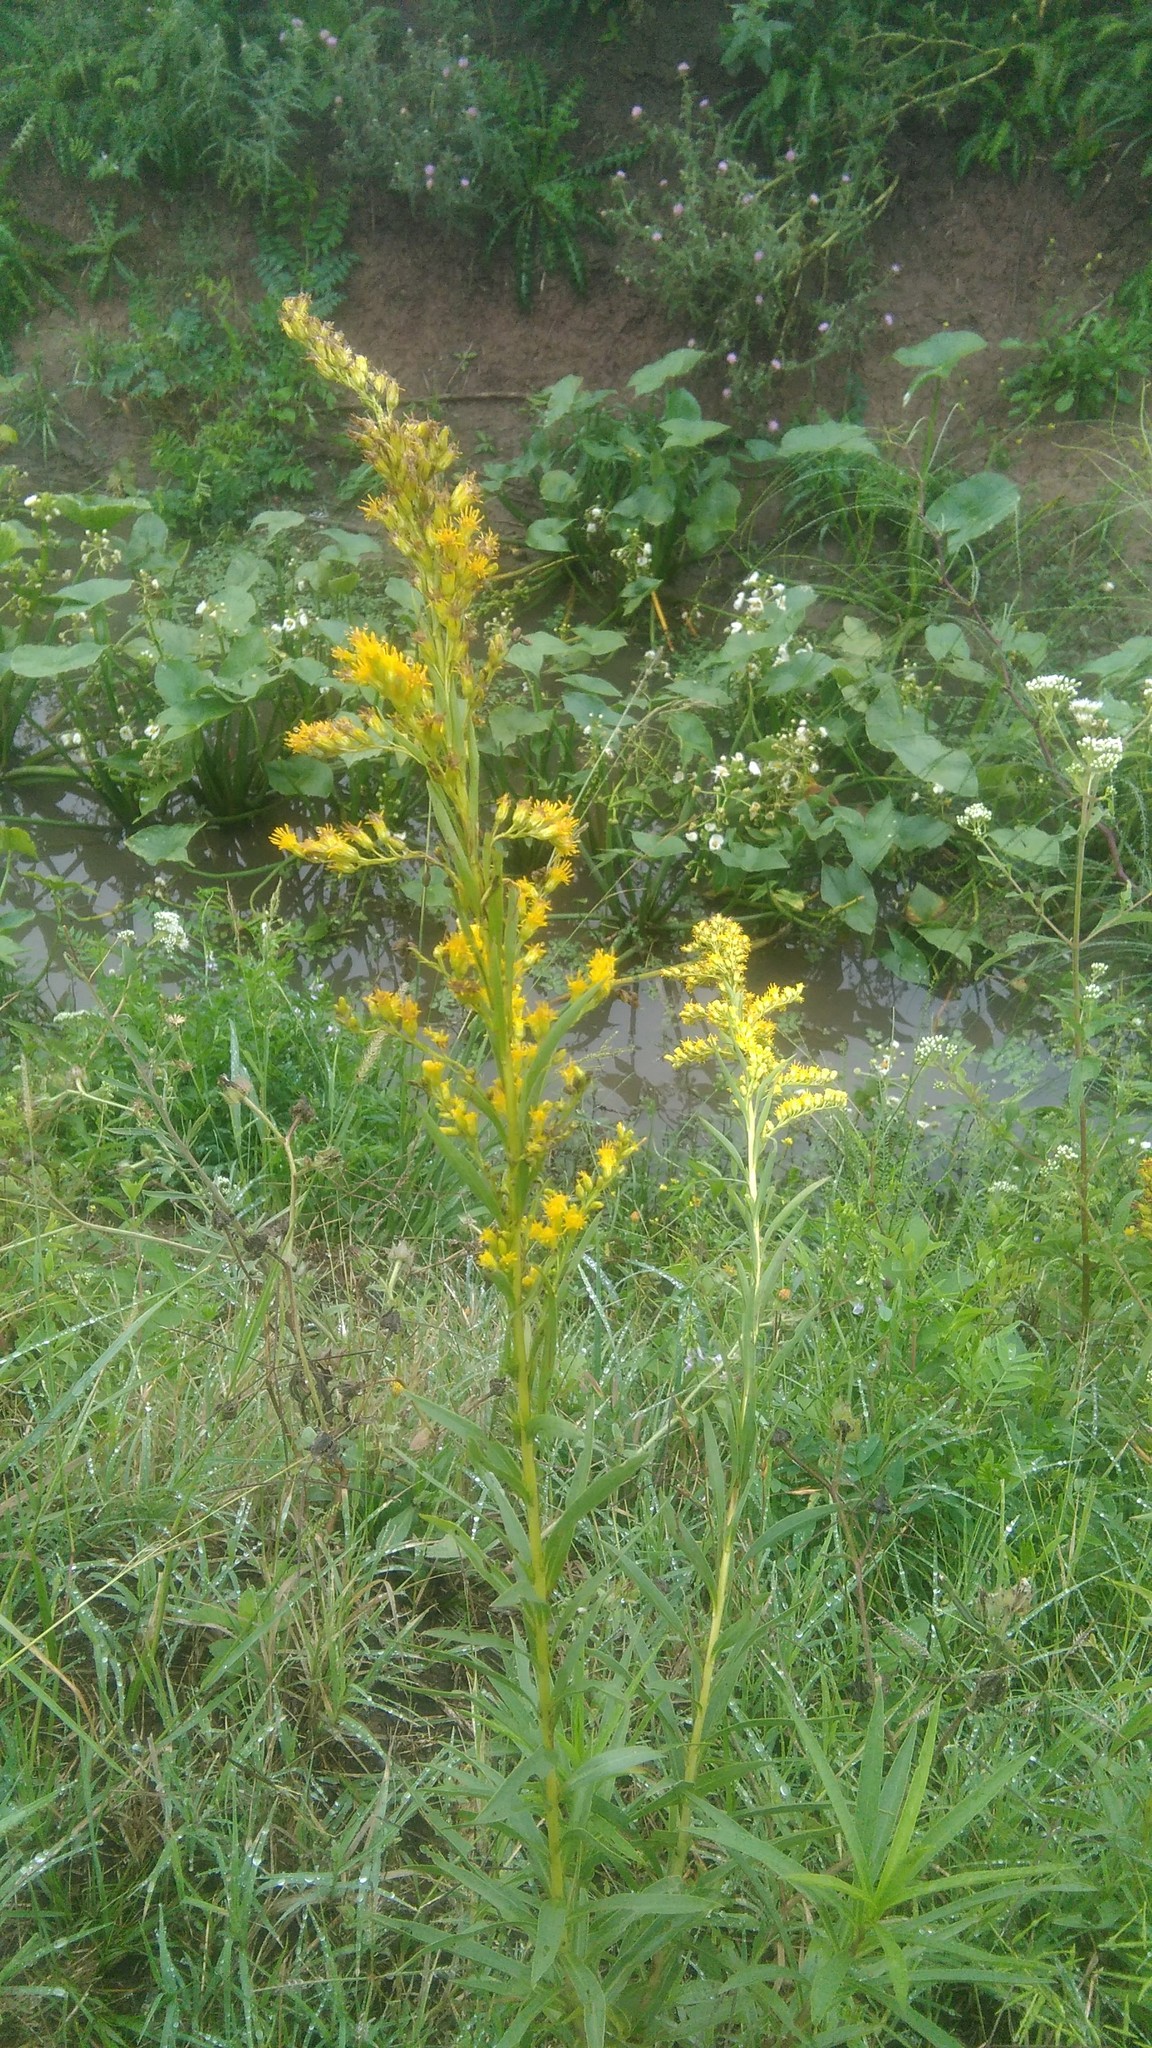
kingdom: Plantae
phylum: Tracheophyta
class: Magnoliopsida
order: Asterales
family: Asteraceae
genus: Solidago
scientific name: Solidago chilensis
